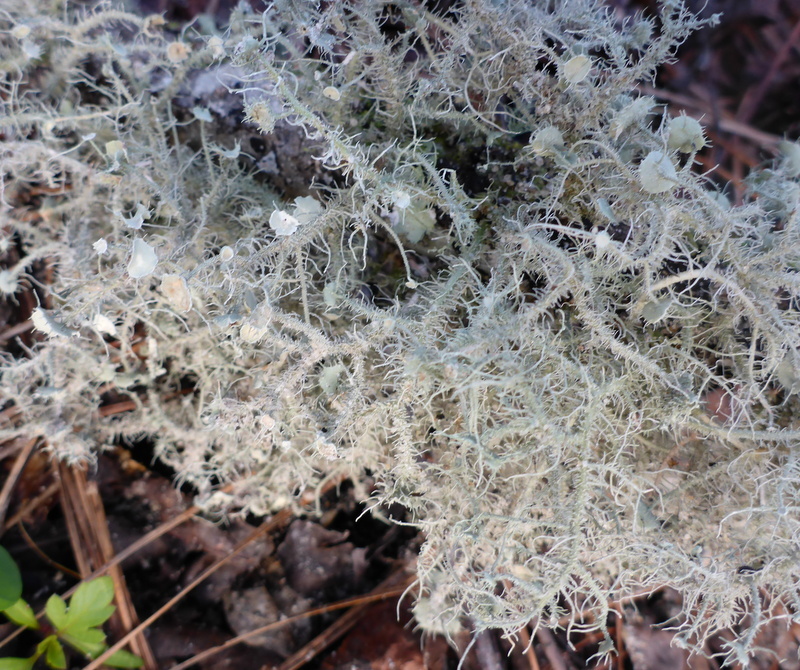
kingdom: Fungi
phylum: Ascomycota
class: Lecanoromycetes
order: Lecanorales
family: Parmeliaceae
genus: Usnea
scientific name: Usnea strigosa
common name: Bushy beard lichen
